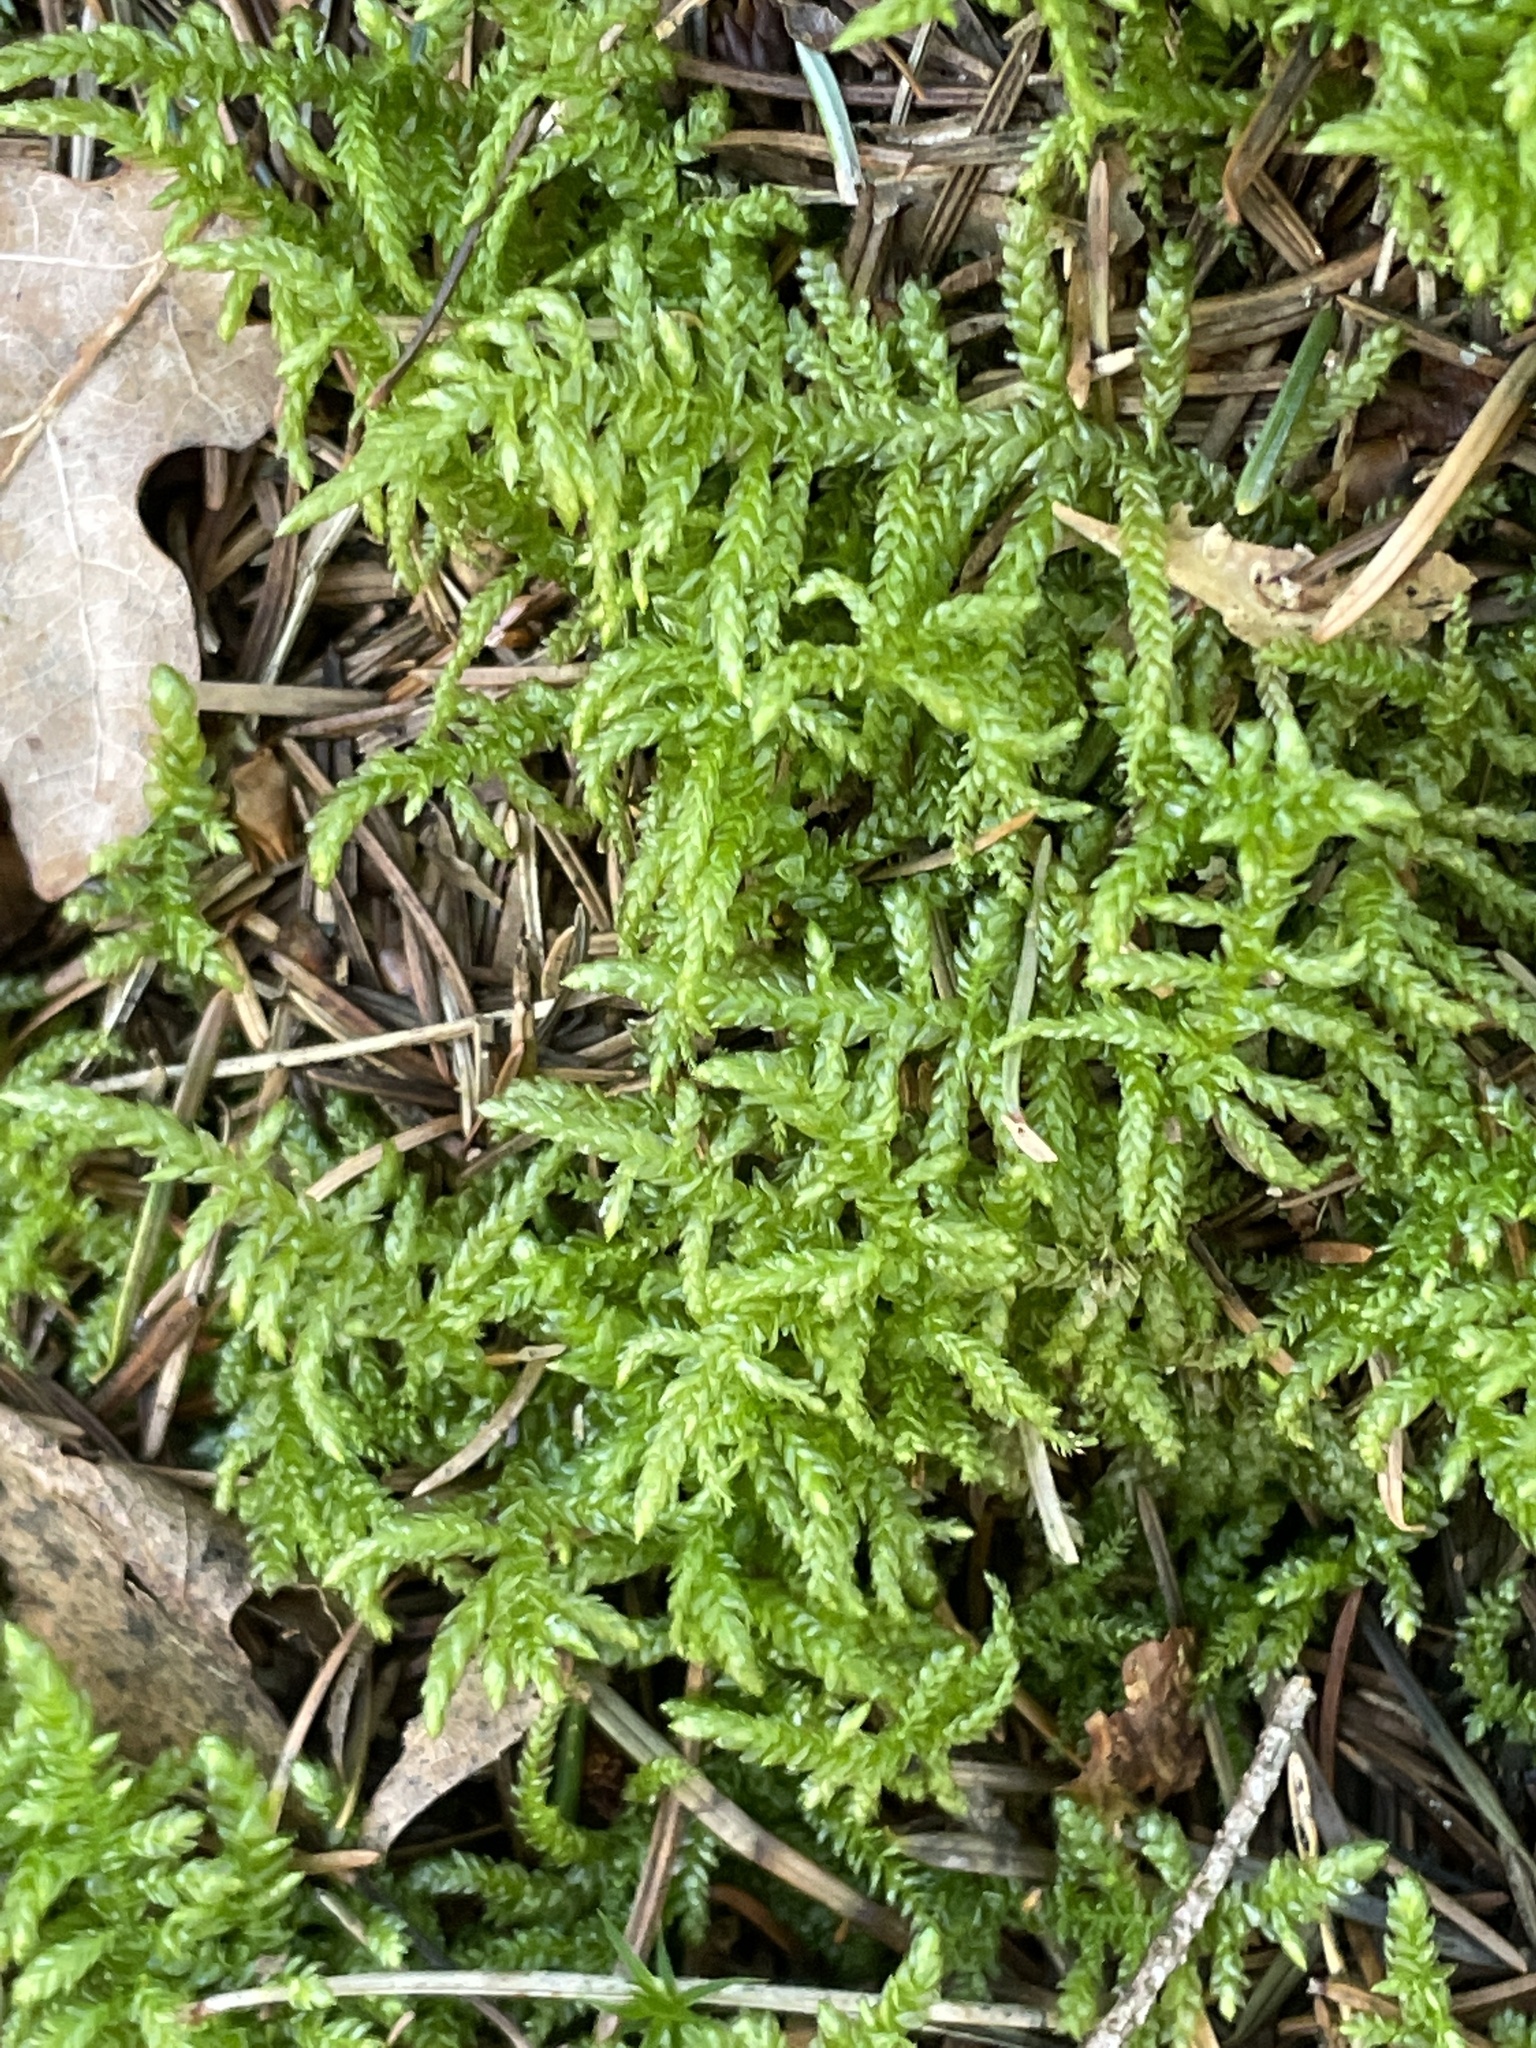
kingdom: Plantae
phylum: Bryophyta
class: Bryopsida
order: Hypnales
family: Brachytheciaceae
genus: Pseudoscleropodium
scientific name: Pseudoscleropodium purum
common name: Neat feather-moss
